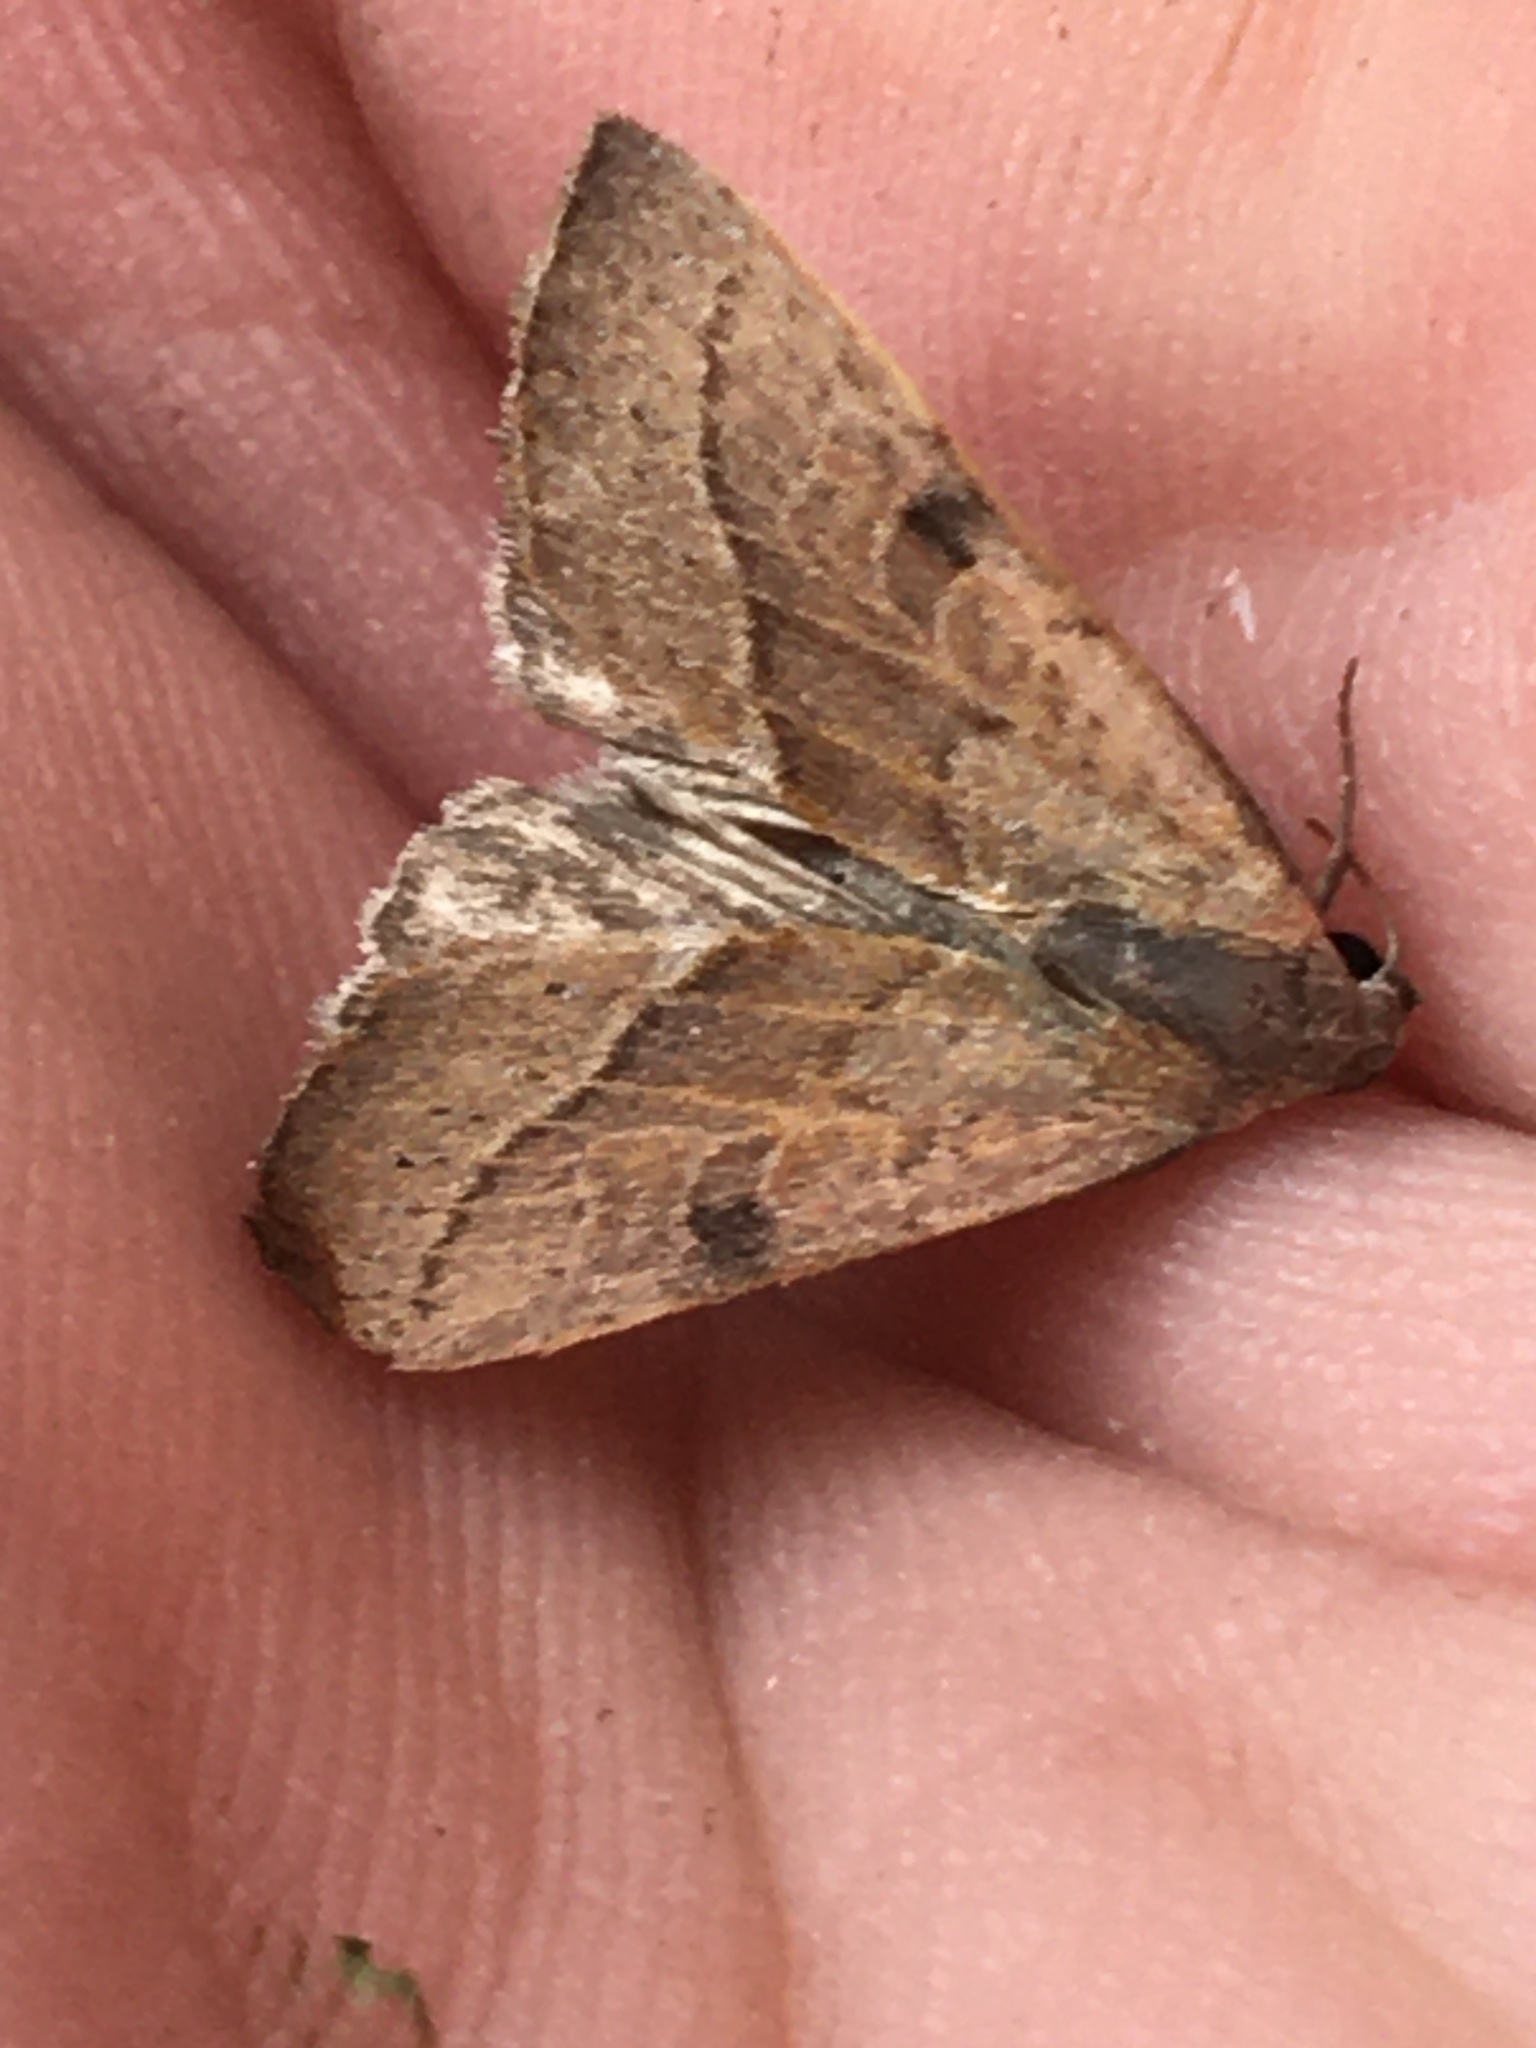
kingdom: Animalia
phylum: Arthropoda
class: Insecta
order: Lepidoptera
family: Noctuidae
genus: Galgula
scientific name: Galgula partita
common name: Wedgeling
